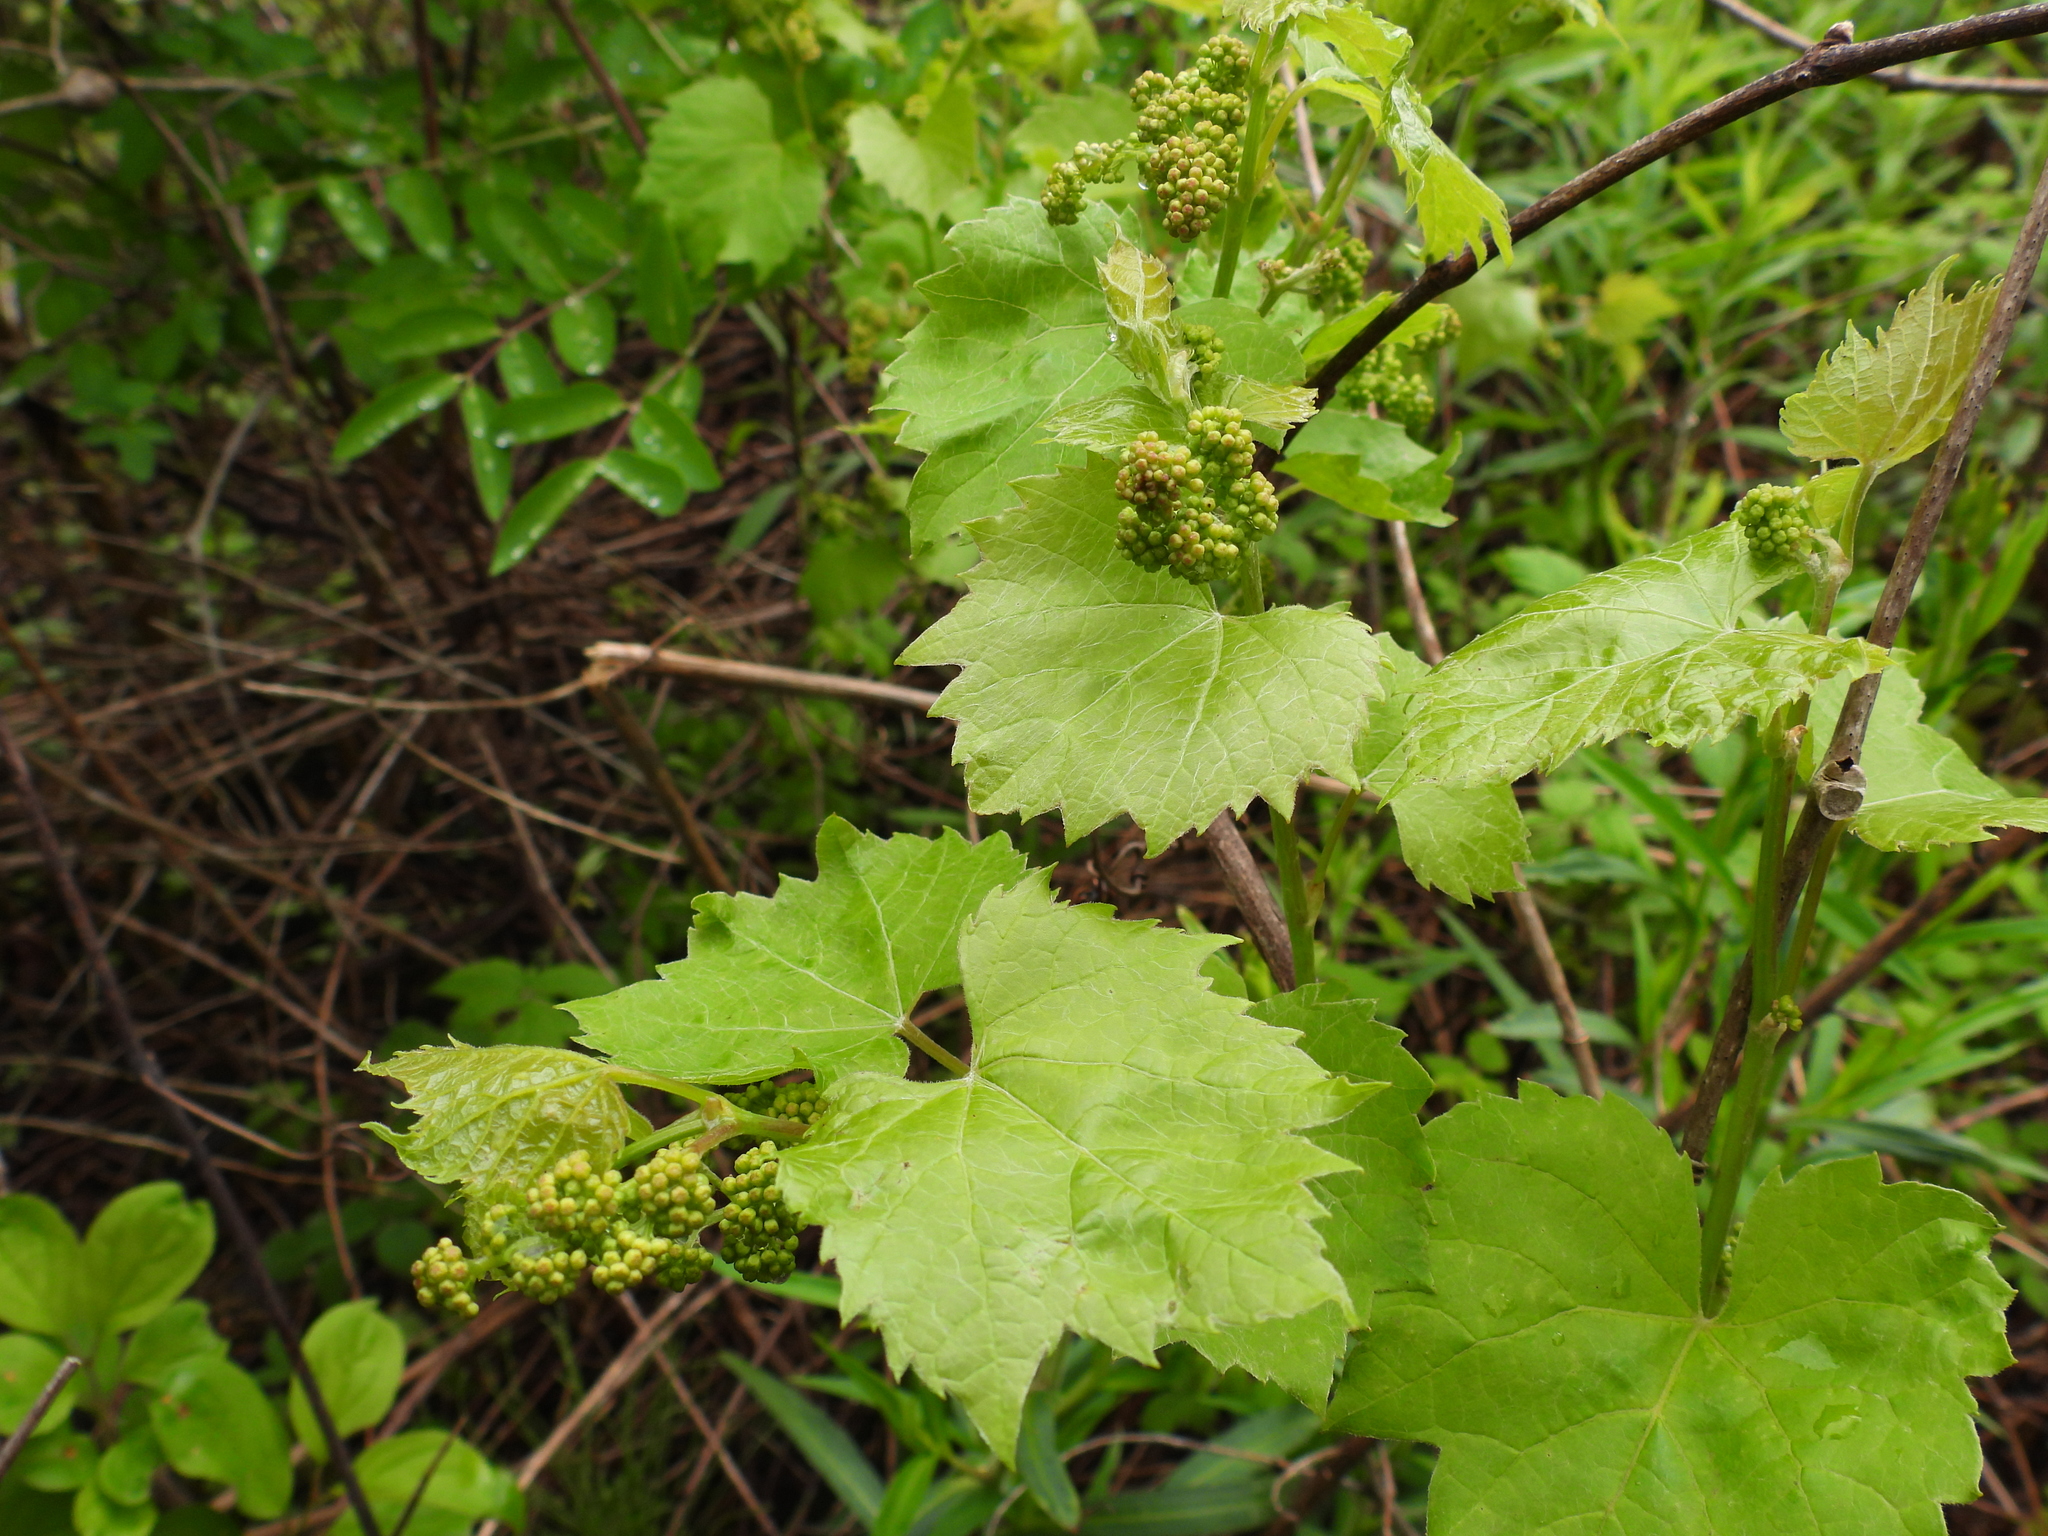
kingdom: Plantae
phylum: Tracheophyta
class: Magnoliopsida
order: Vitales
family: Vitaceae
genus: Vitis
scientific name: Vitis riparia
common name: Frost grape
